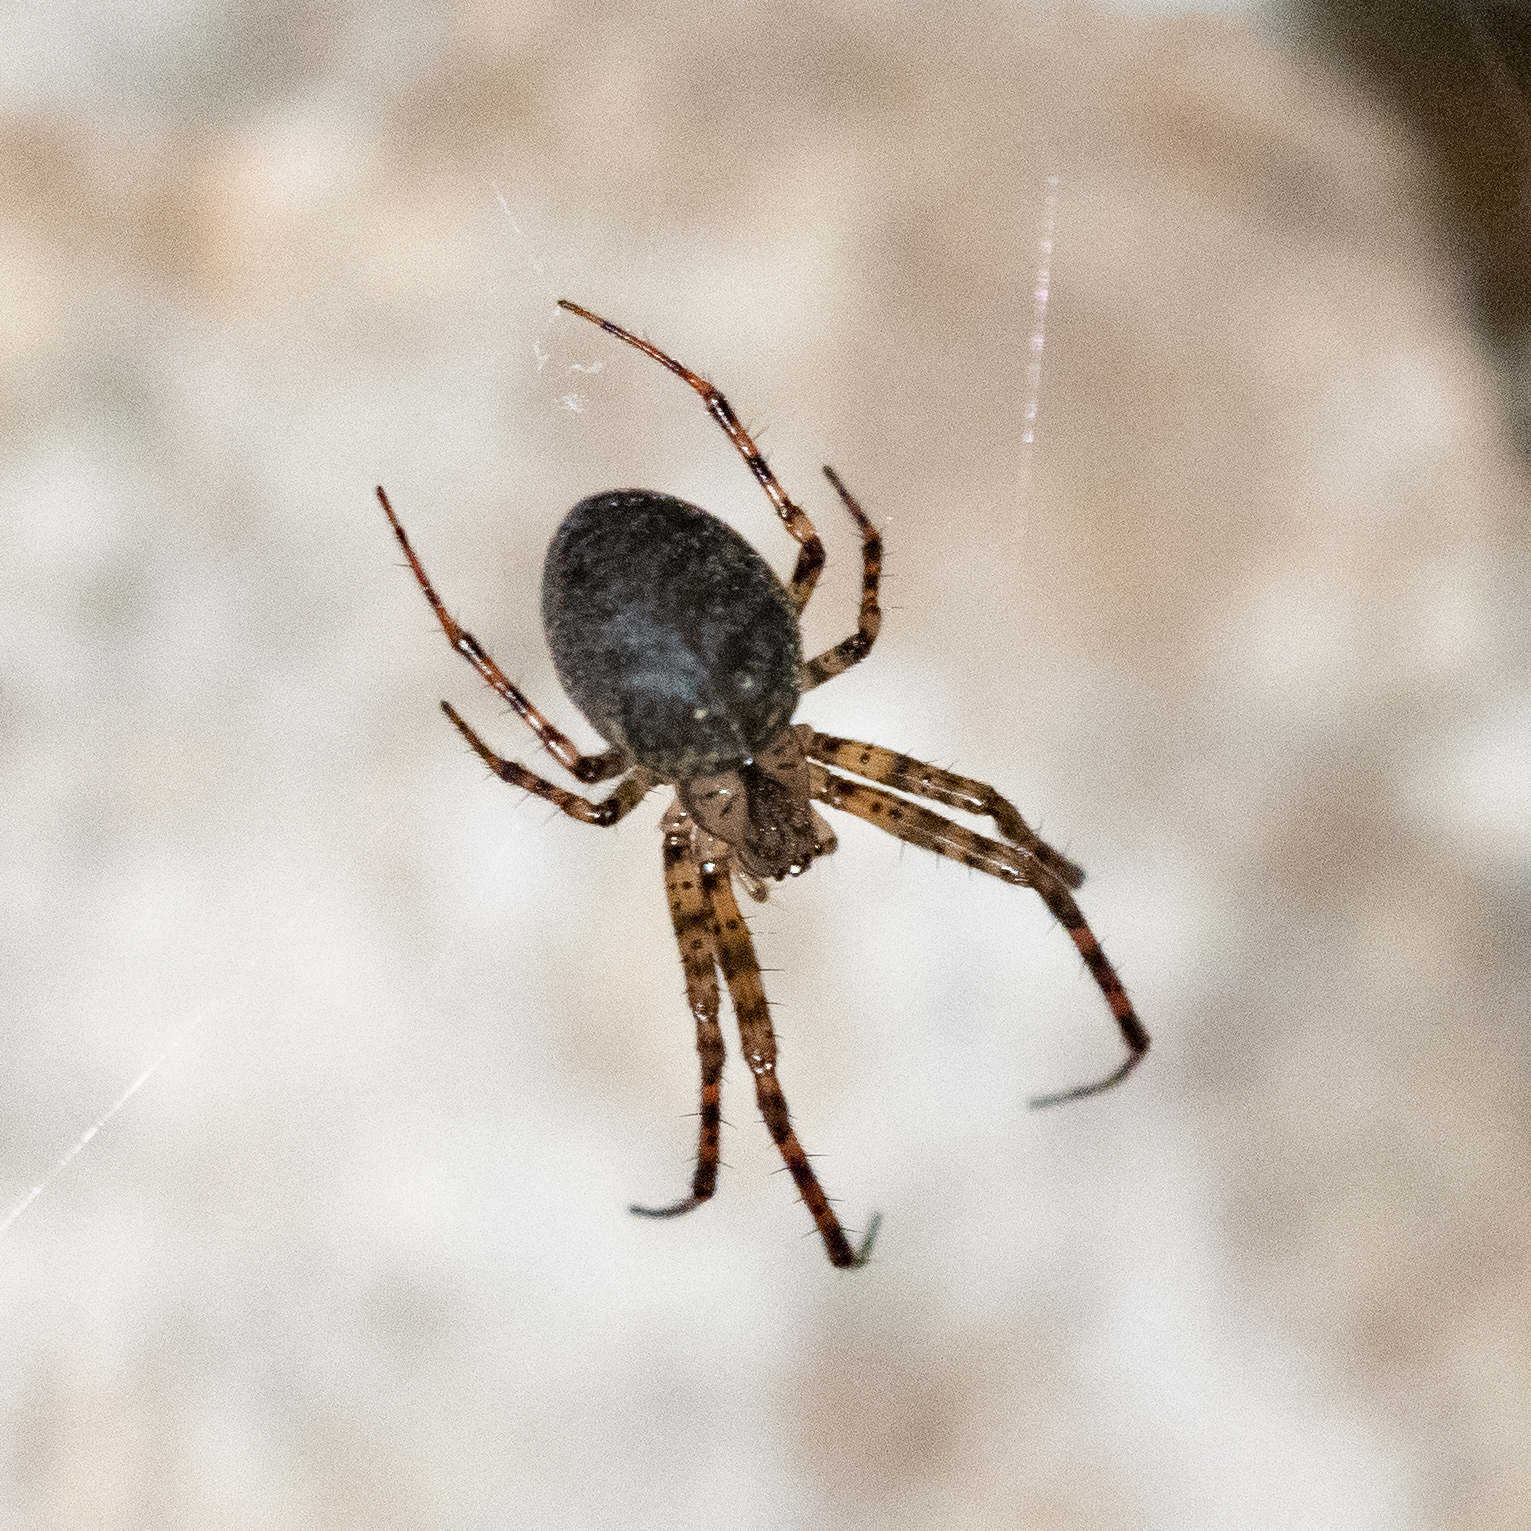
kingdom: Animalia
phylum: Arthropoda
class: Arachnida
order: Araneae
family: Tetragnathidae
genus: Metellina
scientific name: Metellina merianae
